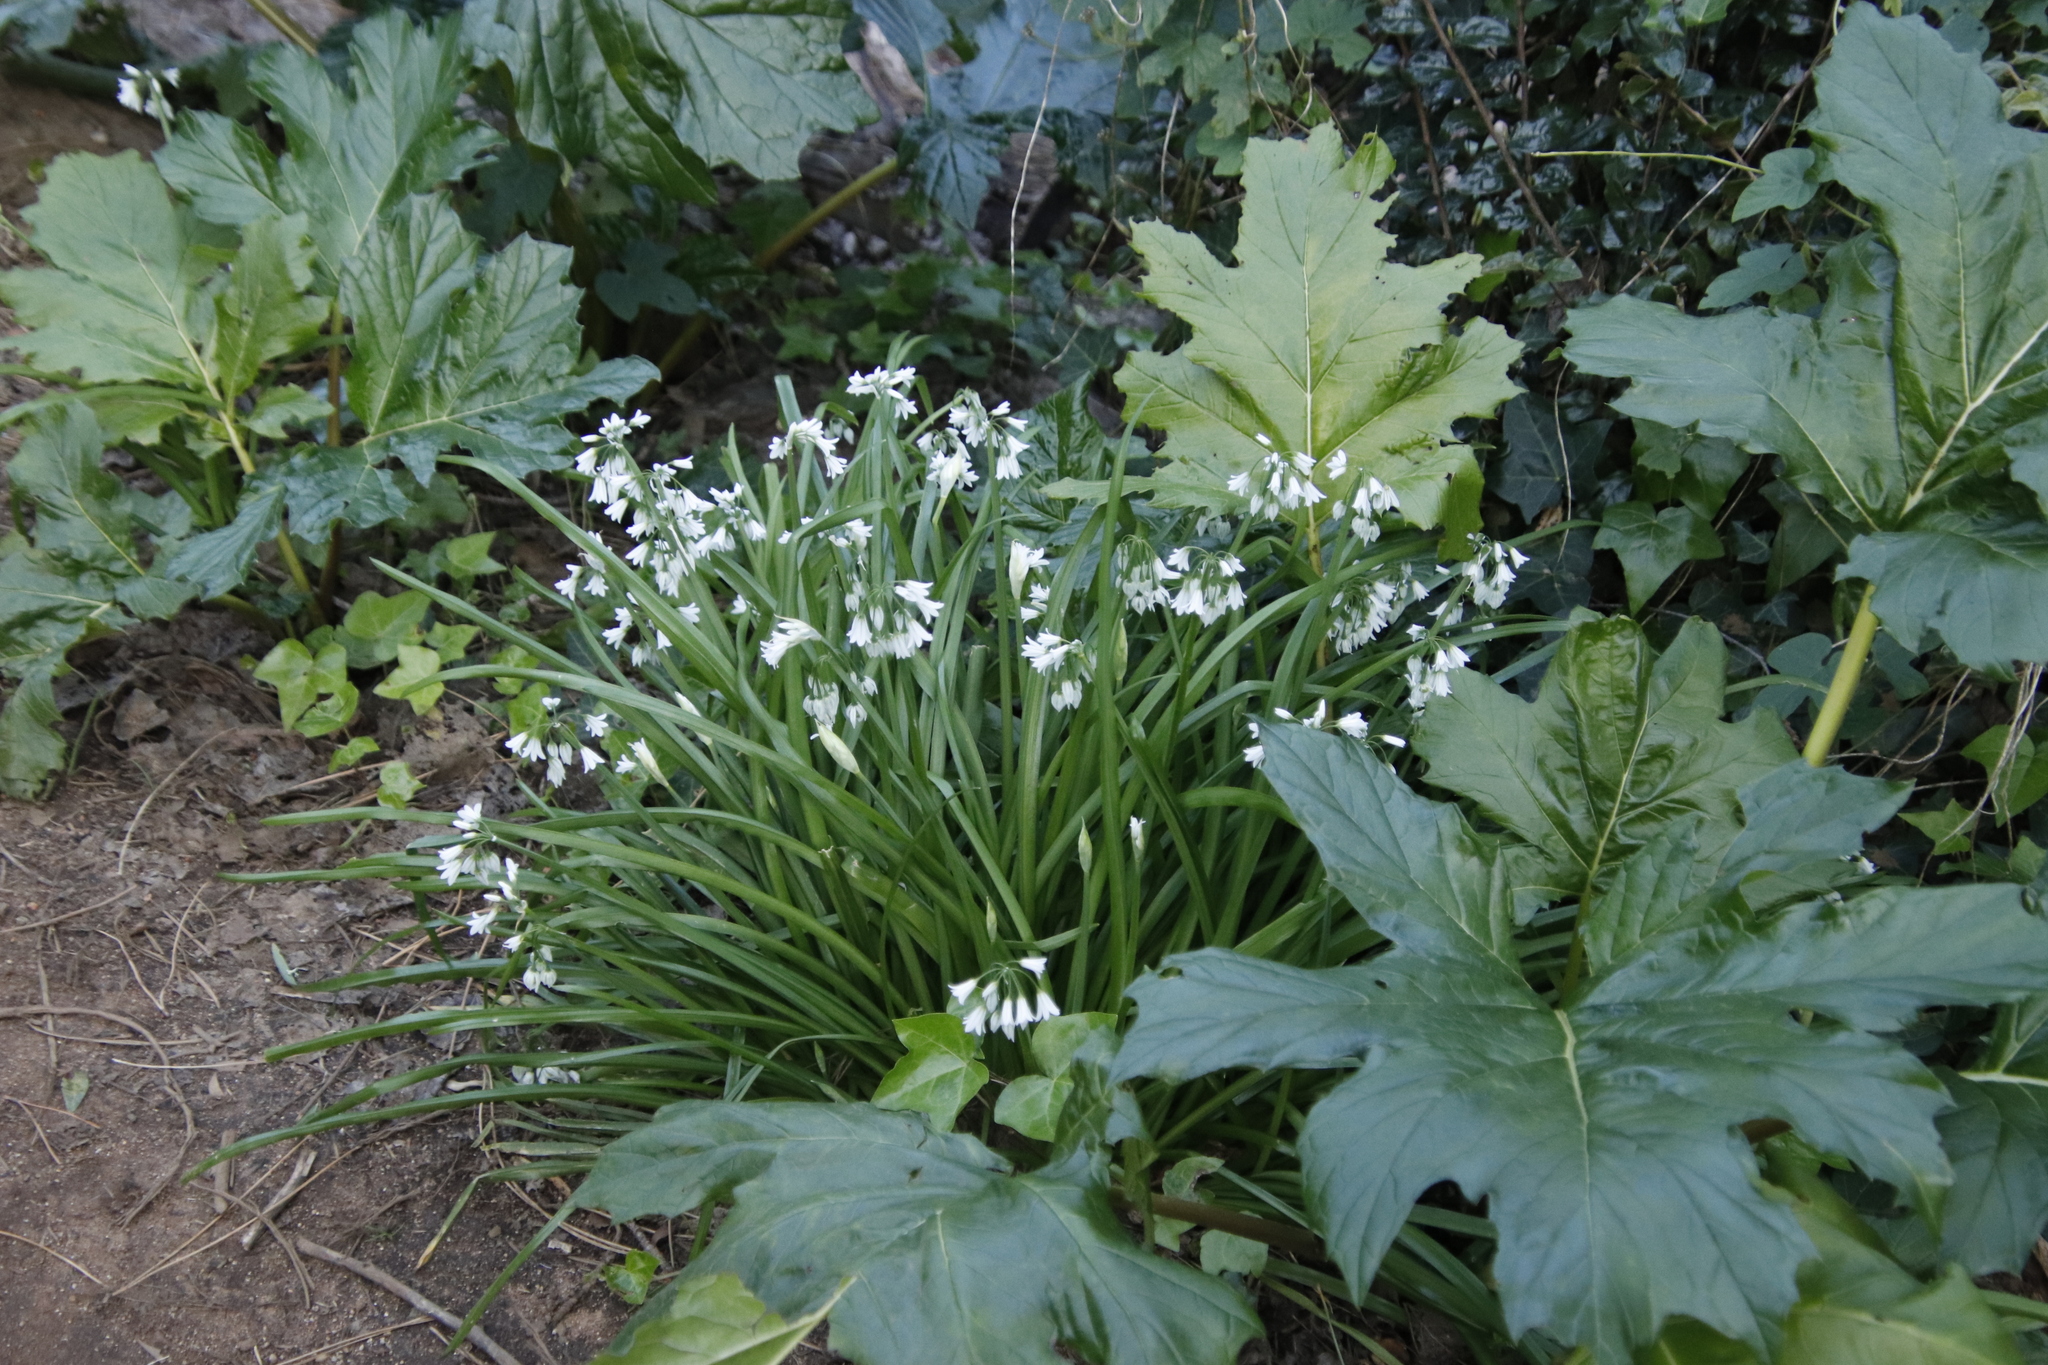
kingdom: Plantae
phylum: Tracheophyta
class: Magnoliopsida
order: Lamiales
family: Acanthaceae
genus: Acanthus
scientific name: Acanthus mollis
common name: Bear's-breech
